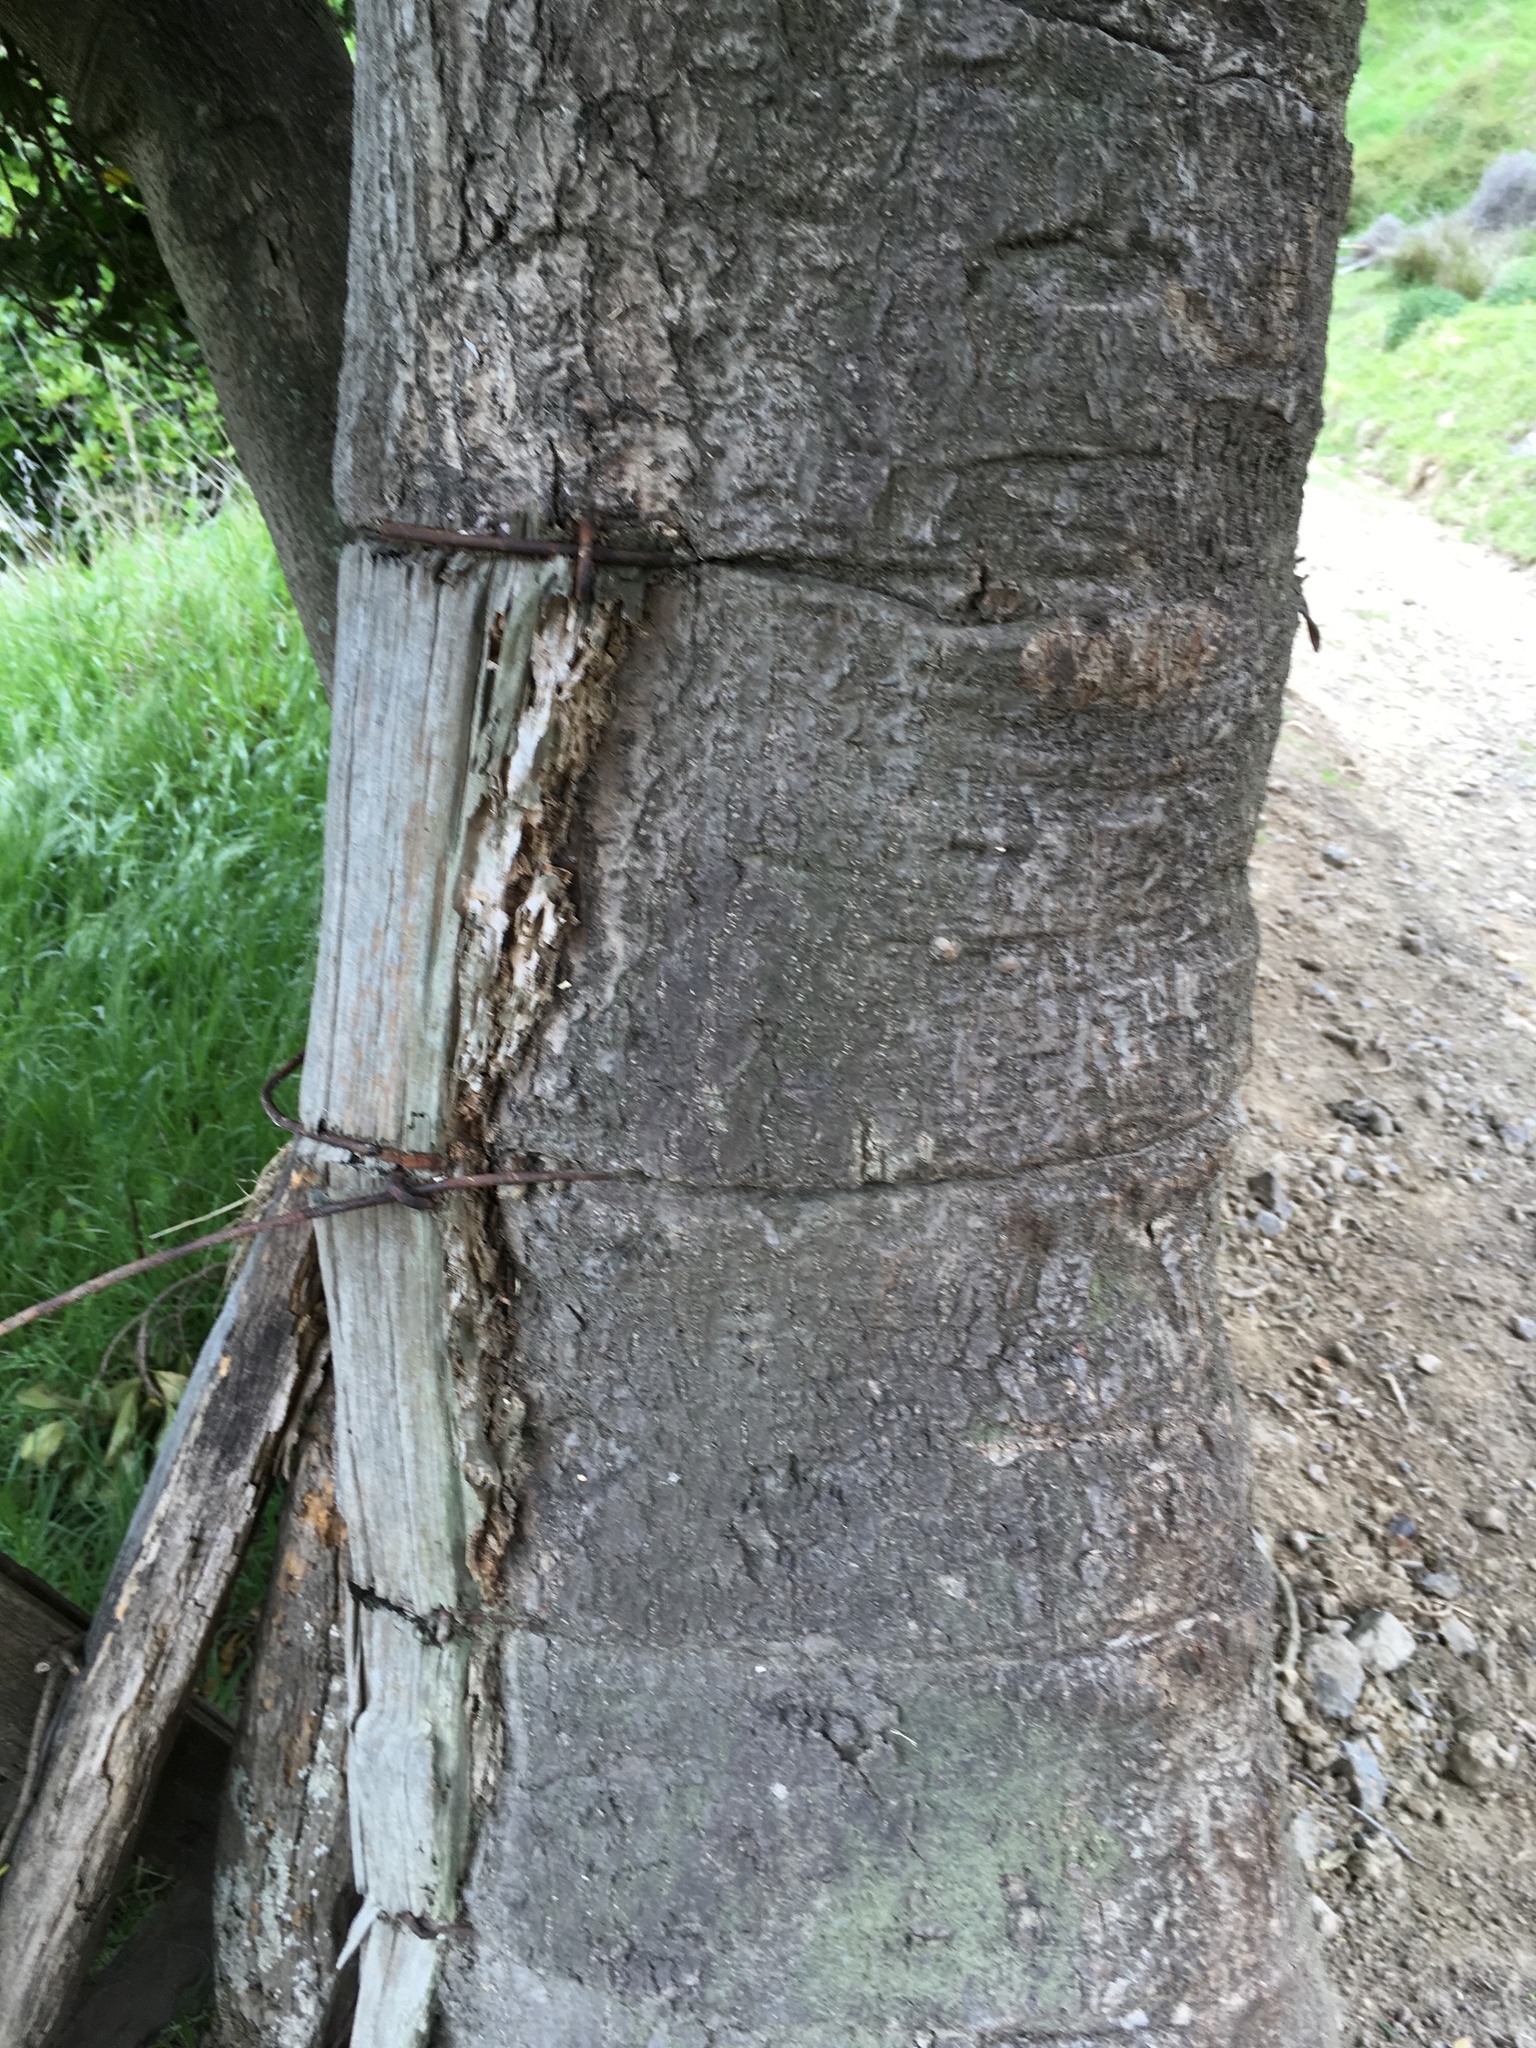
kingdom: Plantae
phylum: Tracheophyta
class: Magnoliopsida
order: Cucurbitales
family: Corynocarpaceae
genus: Corynocarpus
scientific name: Corynocarpus laevigatus
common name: New zealand laurel
